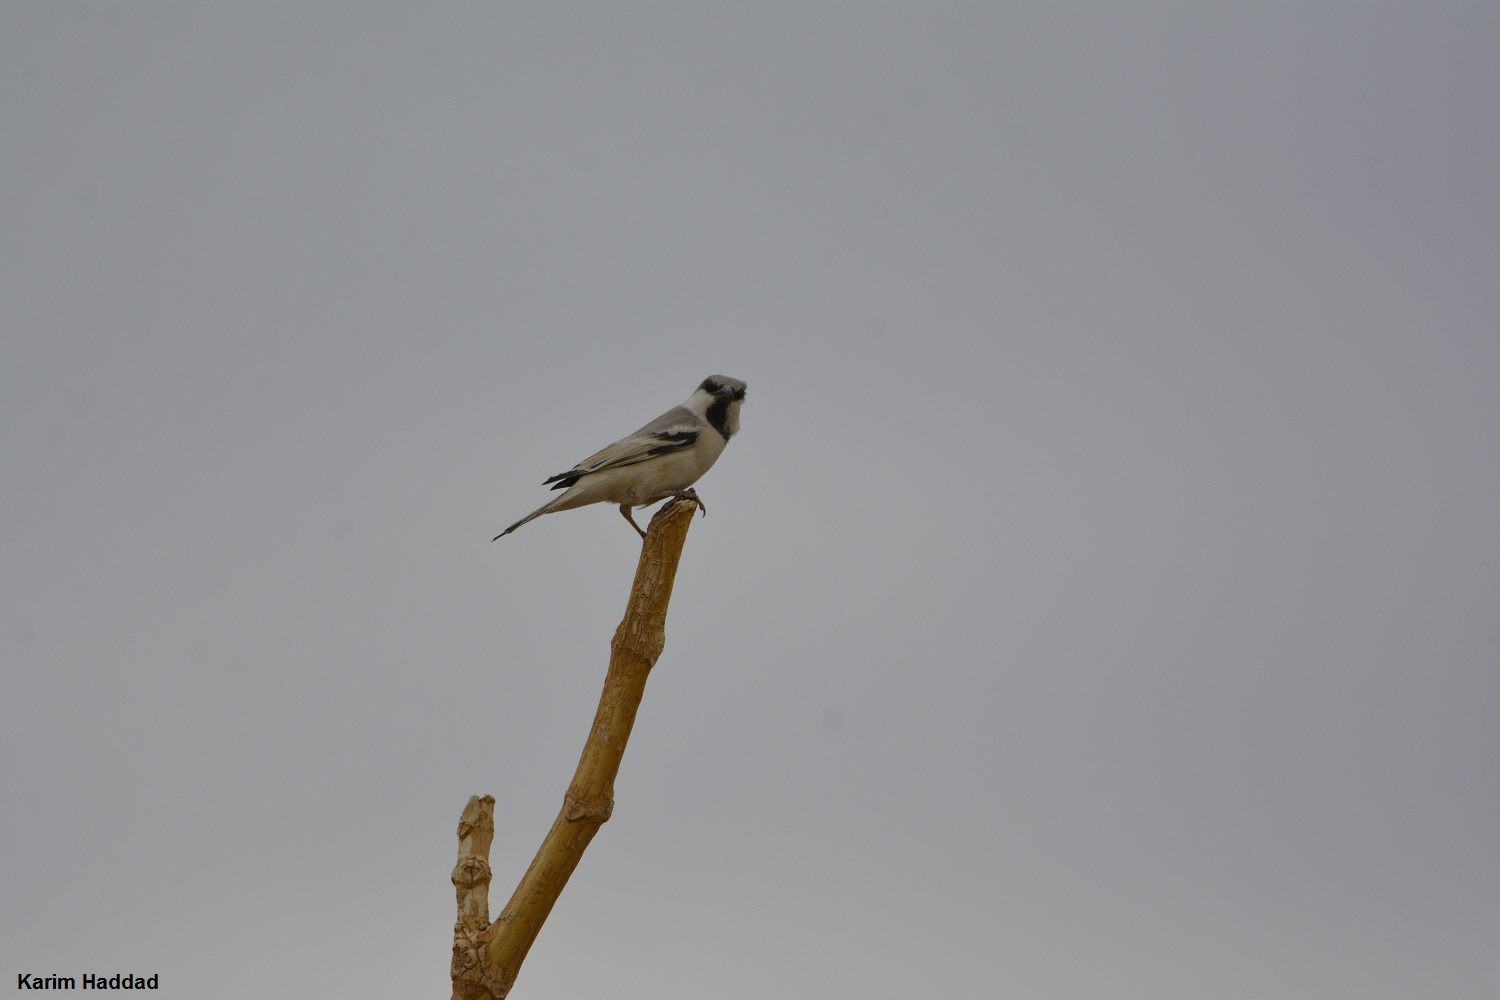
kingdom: Animalia
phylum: Chordata
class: Aves
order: Passeriformes
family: Passeridae
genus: Passer
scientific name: Passer simplex
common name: Desert sparrow
